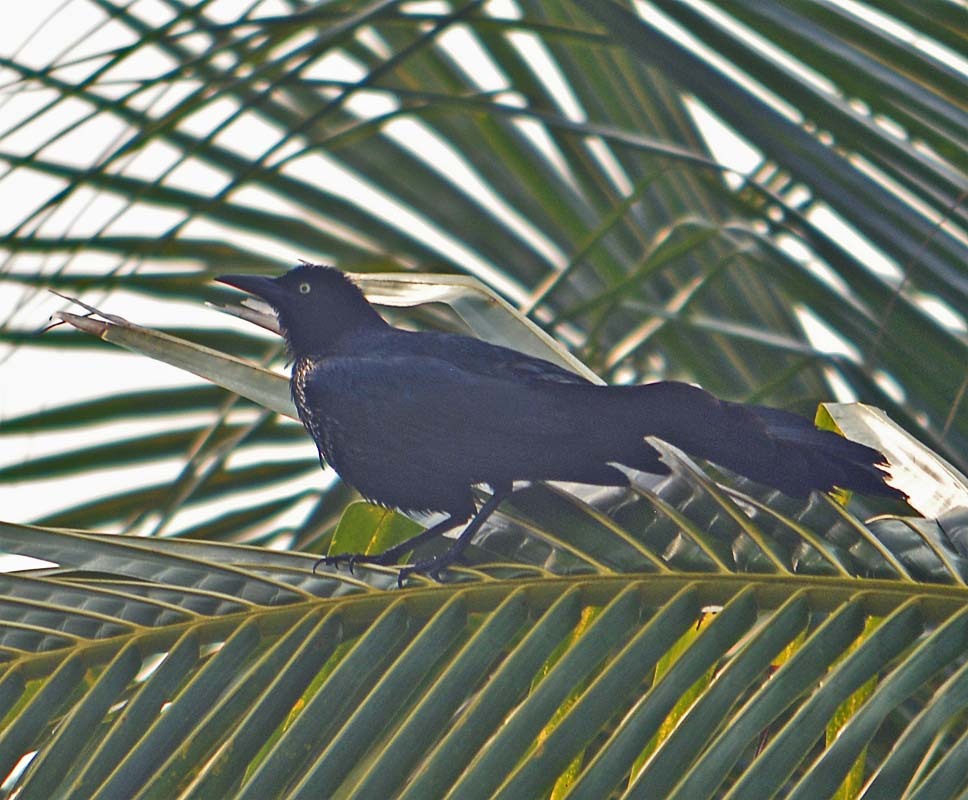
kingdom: Animalia
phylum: Chordata
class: Aves
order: Passeriformes
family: Icteridae
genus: Quiscalus
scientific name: Quiscalus mexicanus
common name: Great-tailed grackle
